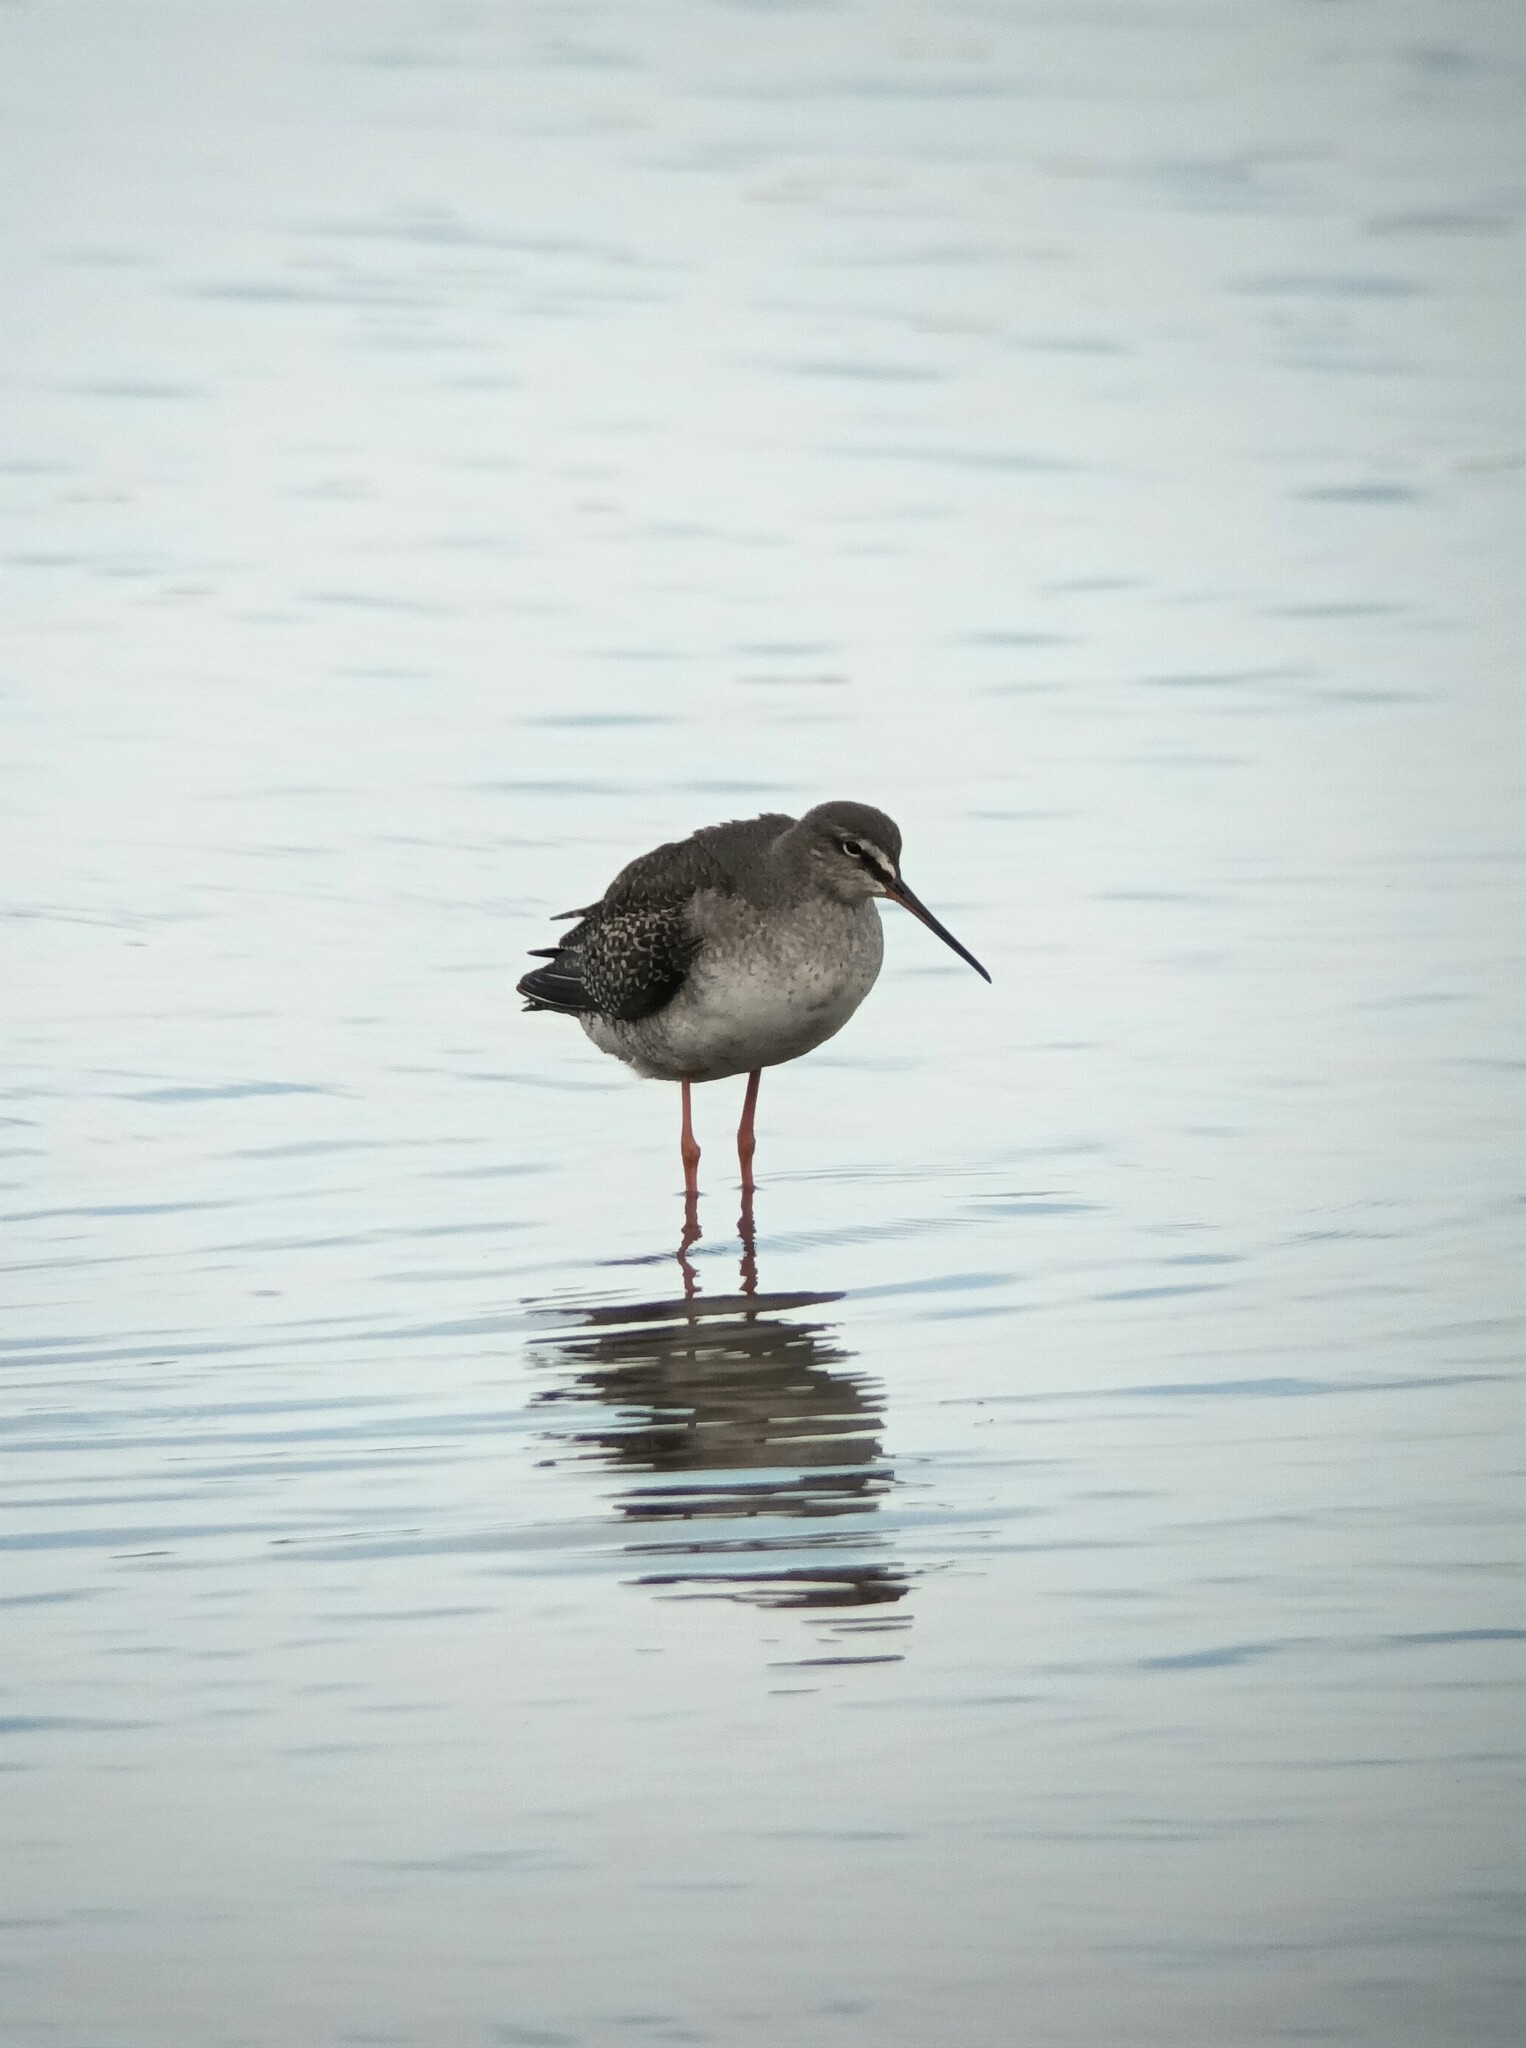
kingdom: Animalia
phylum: Chordata
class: Aves
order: Charadriiformes
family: Scolopacidae
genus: Tringa
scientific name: Tringa erythropus
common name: Spotted redshank
